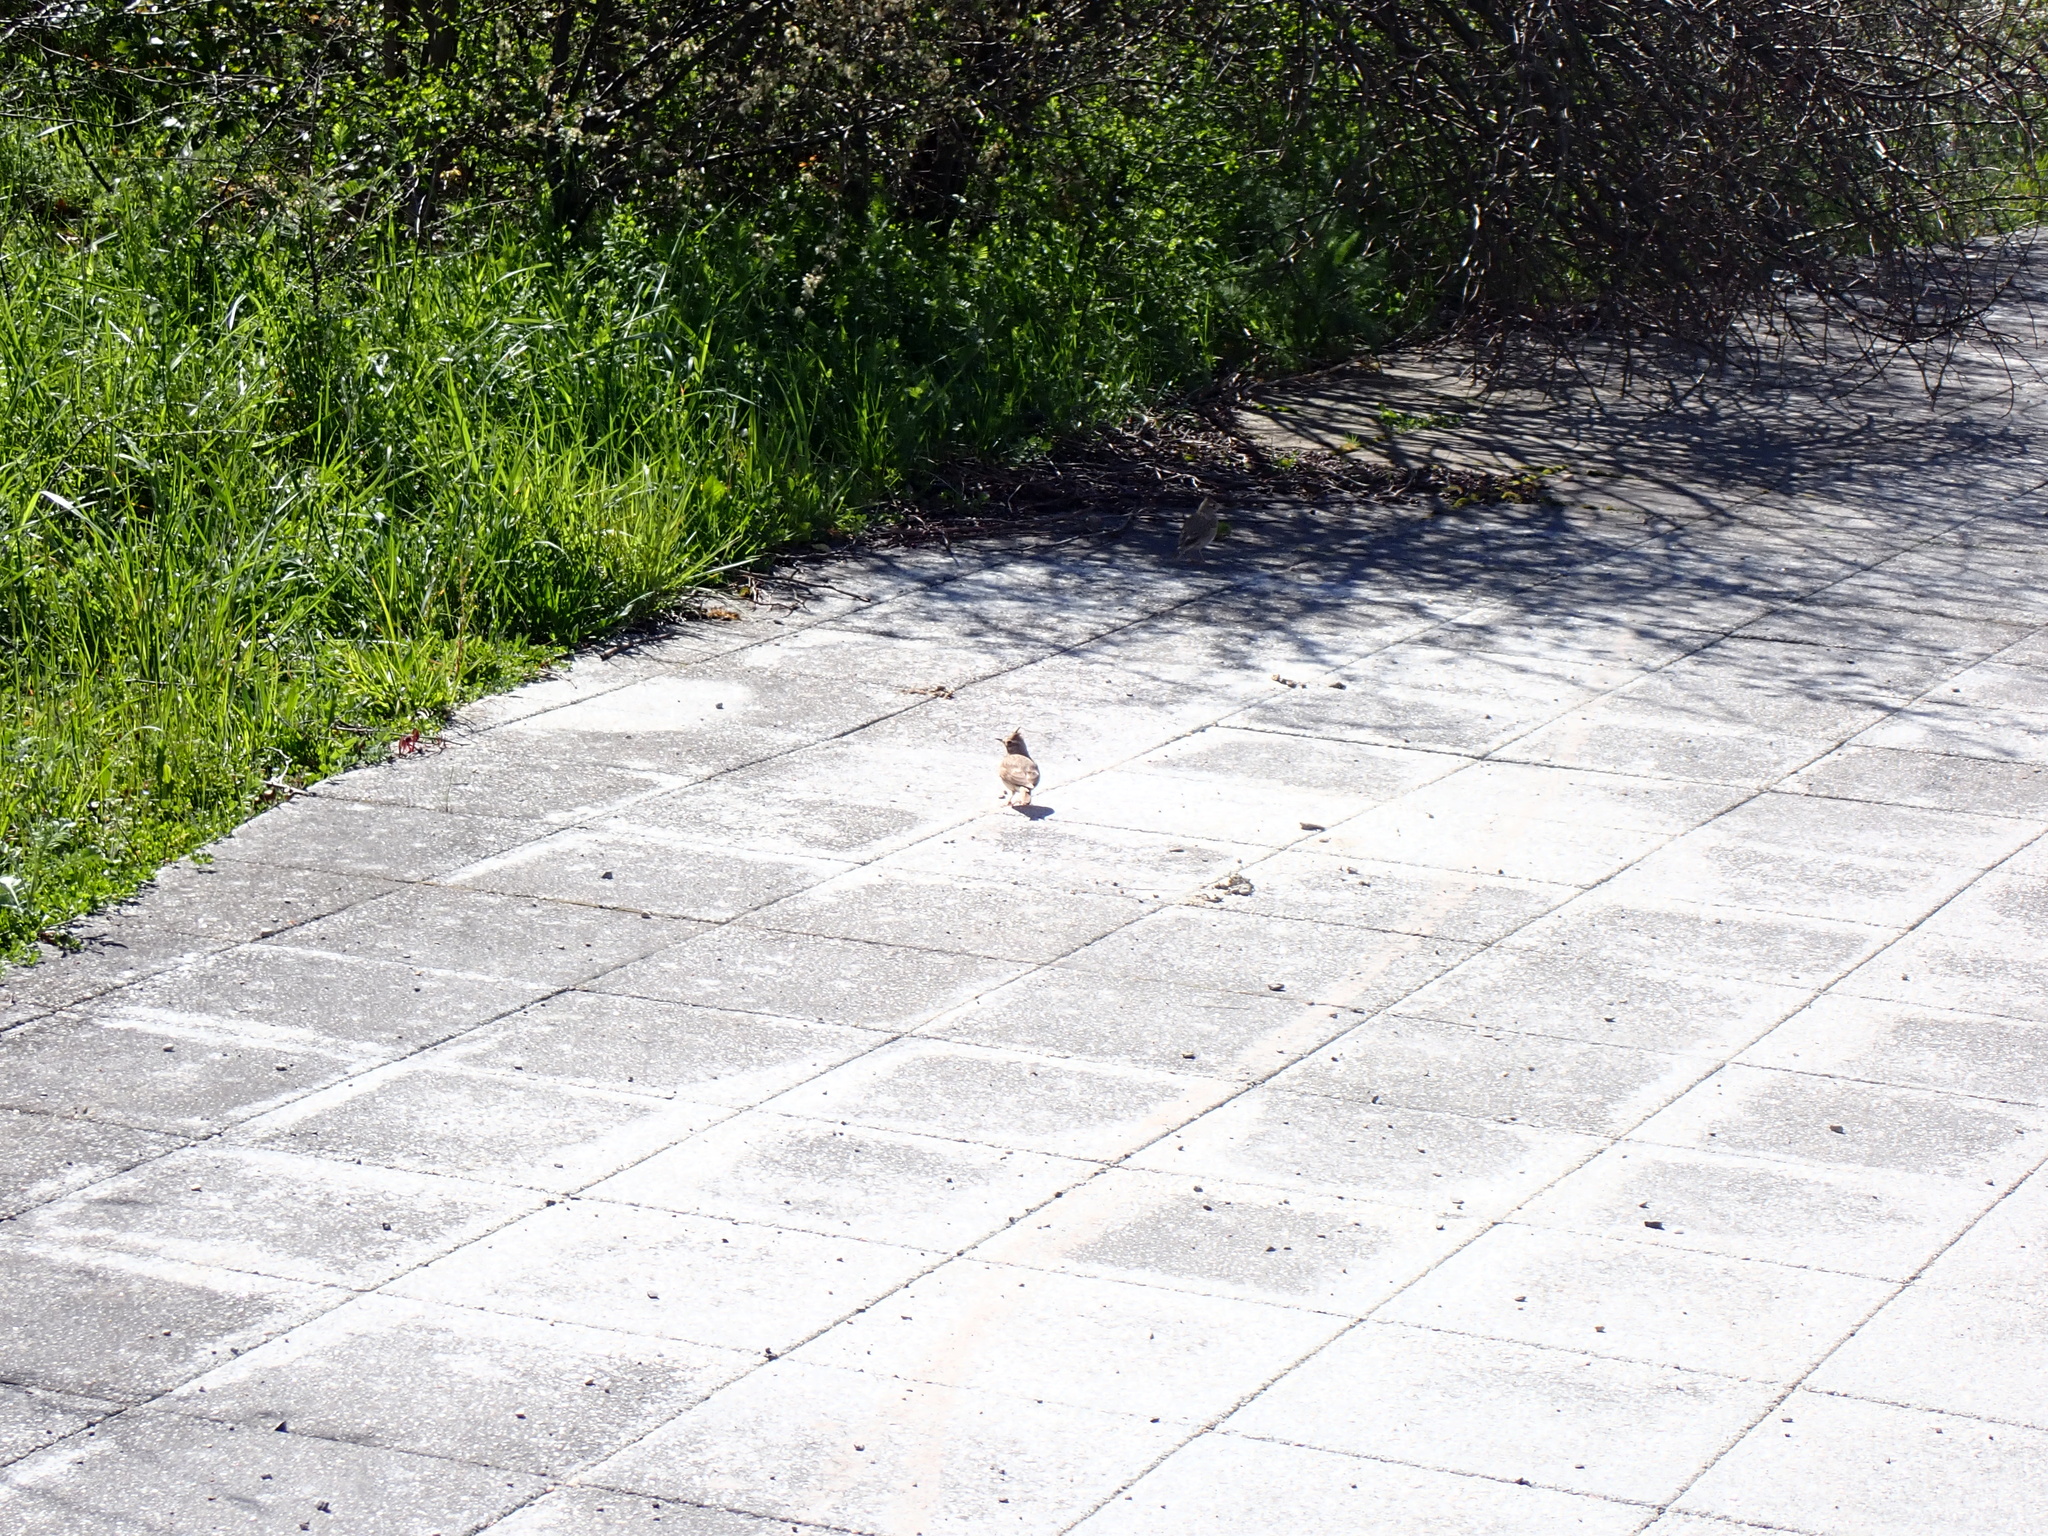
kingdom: Animalia
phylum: Chordata
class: Aves
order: Passeriformes
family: Alaudidae
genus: Galerida
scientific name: Galerida cristata
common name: Crested lark
